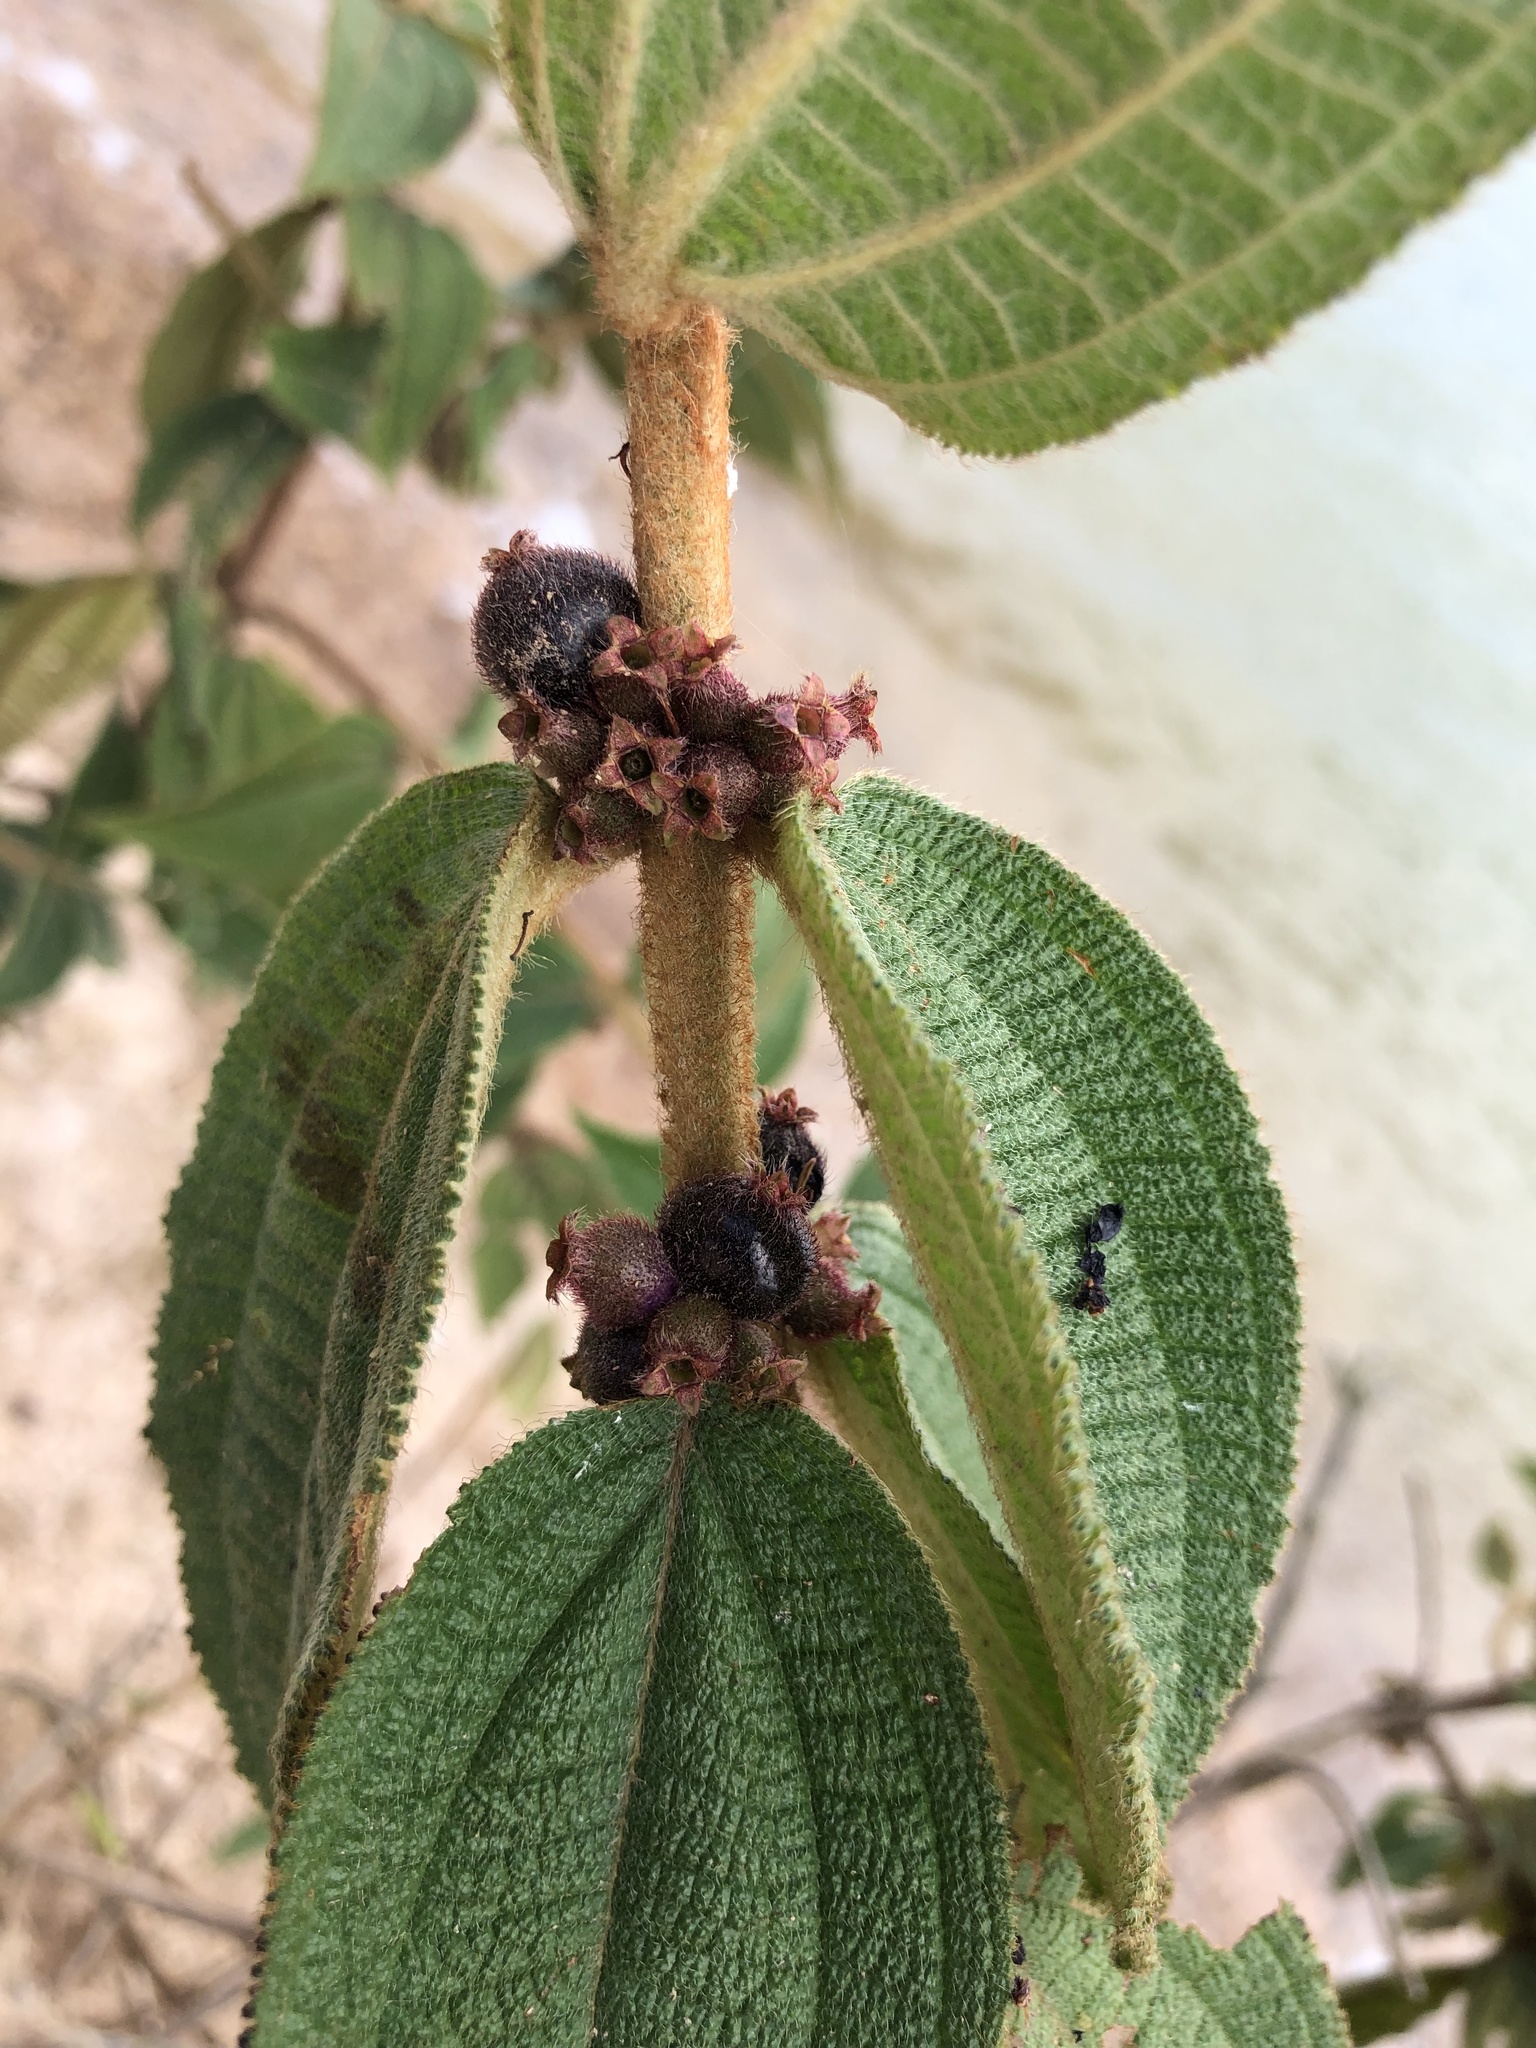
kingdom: Plantae
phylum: Tracheophyta
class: Magnoliopsida
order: Myrtales
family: Melastomataceae
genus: Miconia
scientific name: Miconia rubra
